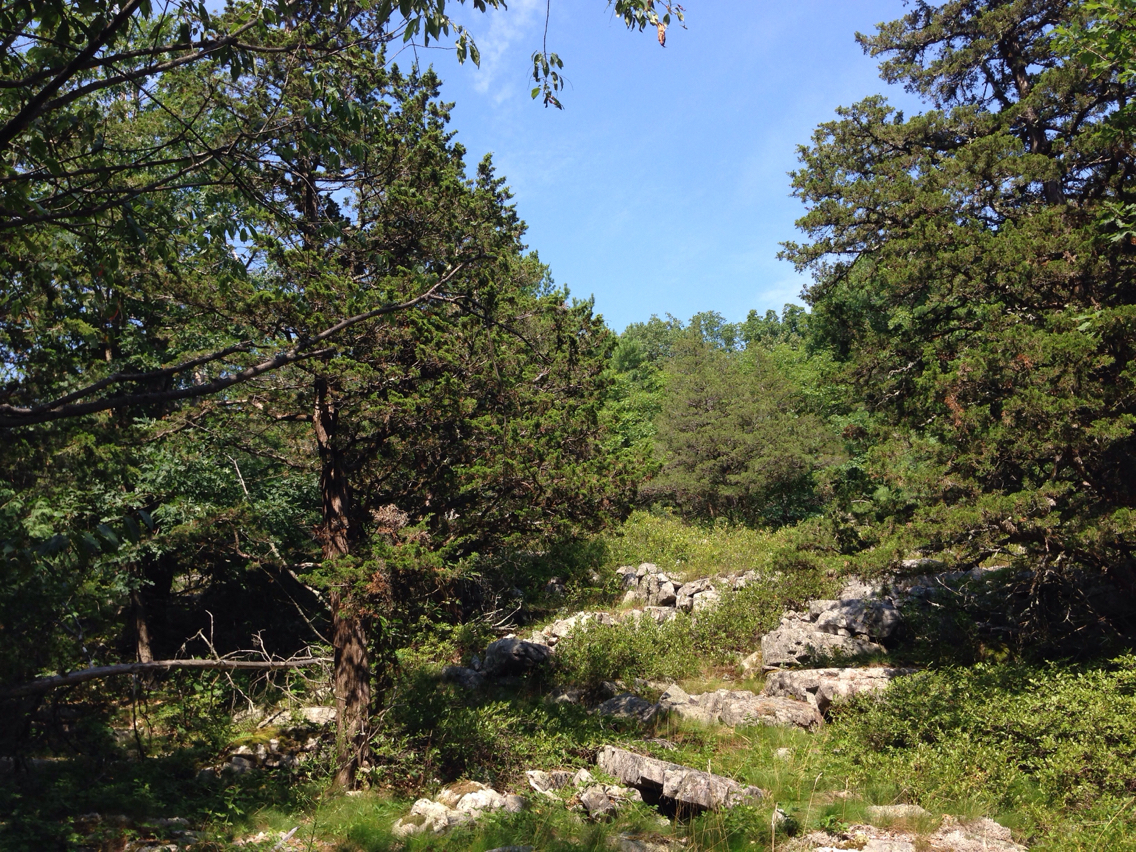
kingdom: Plantae
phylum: Tracheophyta
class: Pinopsida
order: Pinales
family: Cupressaceae
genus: Juniperus
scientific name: Juniperus virginiana
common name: Red juniper
